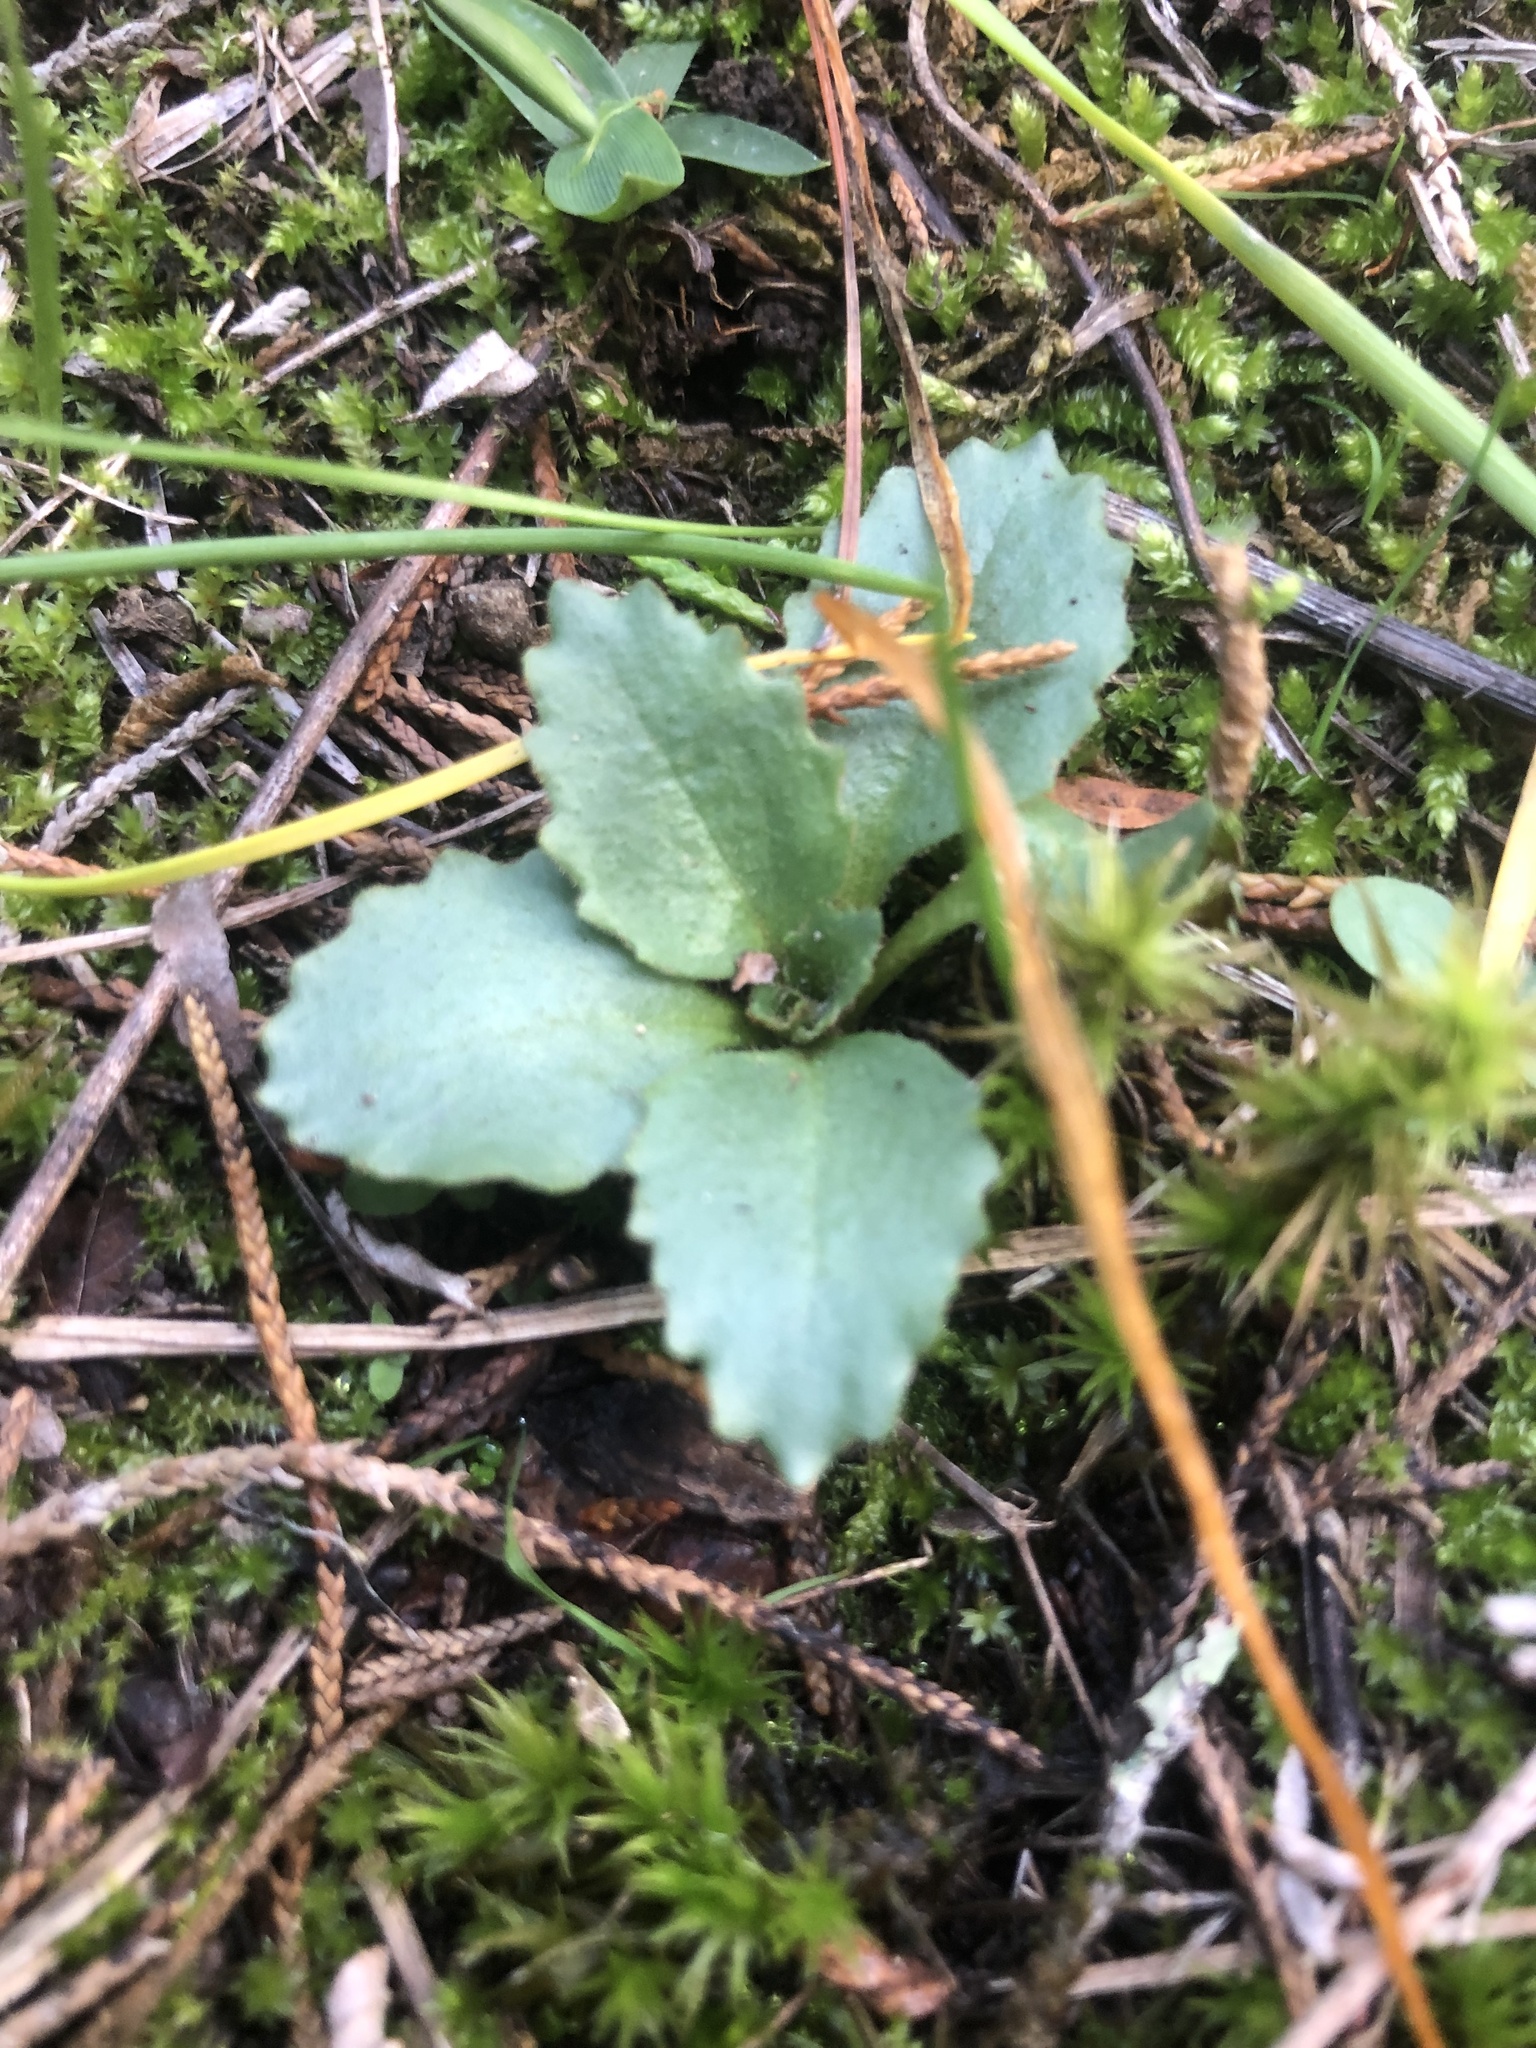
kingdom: Plantae
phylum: Tracheophyta
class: Magnoliopsida
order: Saxifragales
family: Saxifragaceae
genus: Micranthes
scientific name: Micranthes virginiensis
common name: Early saxifrage
